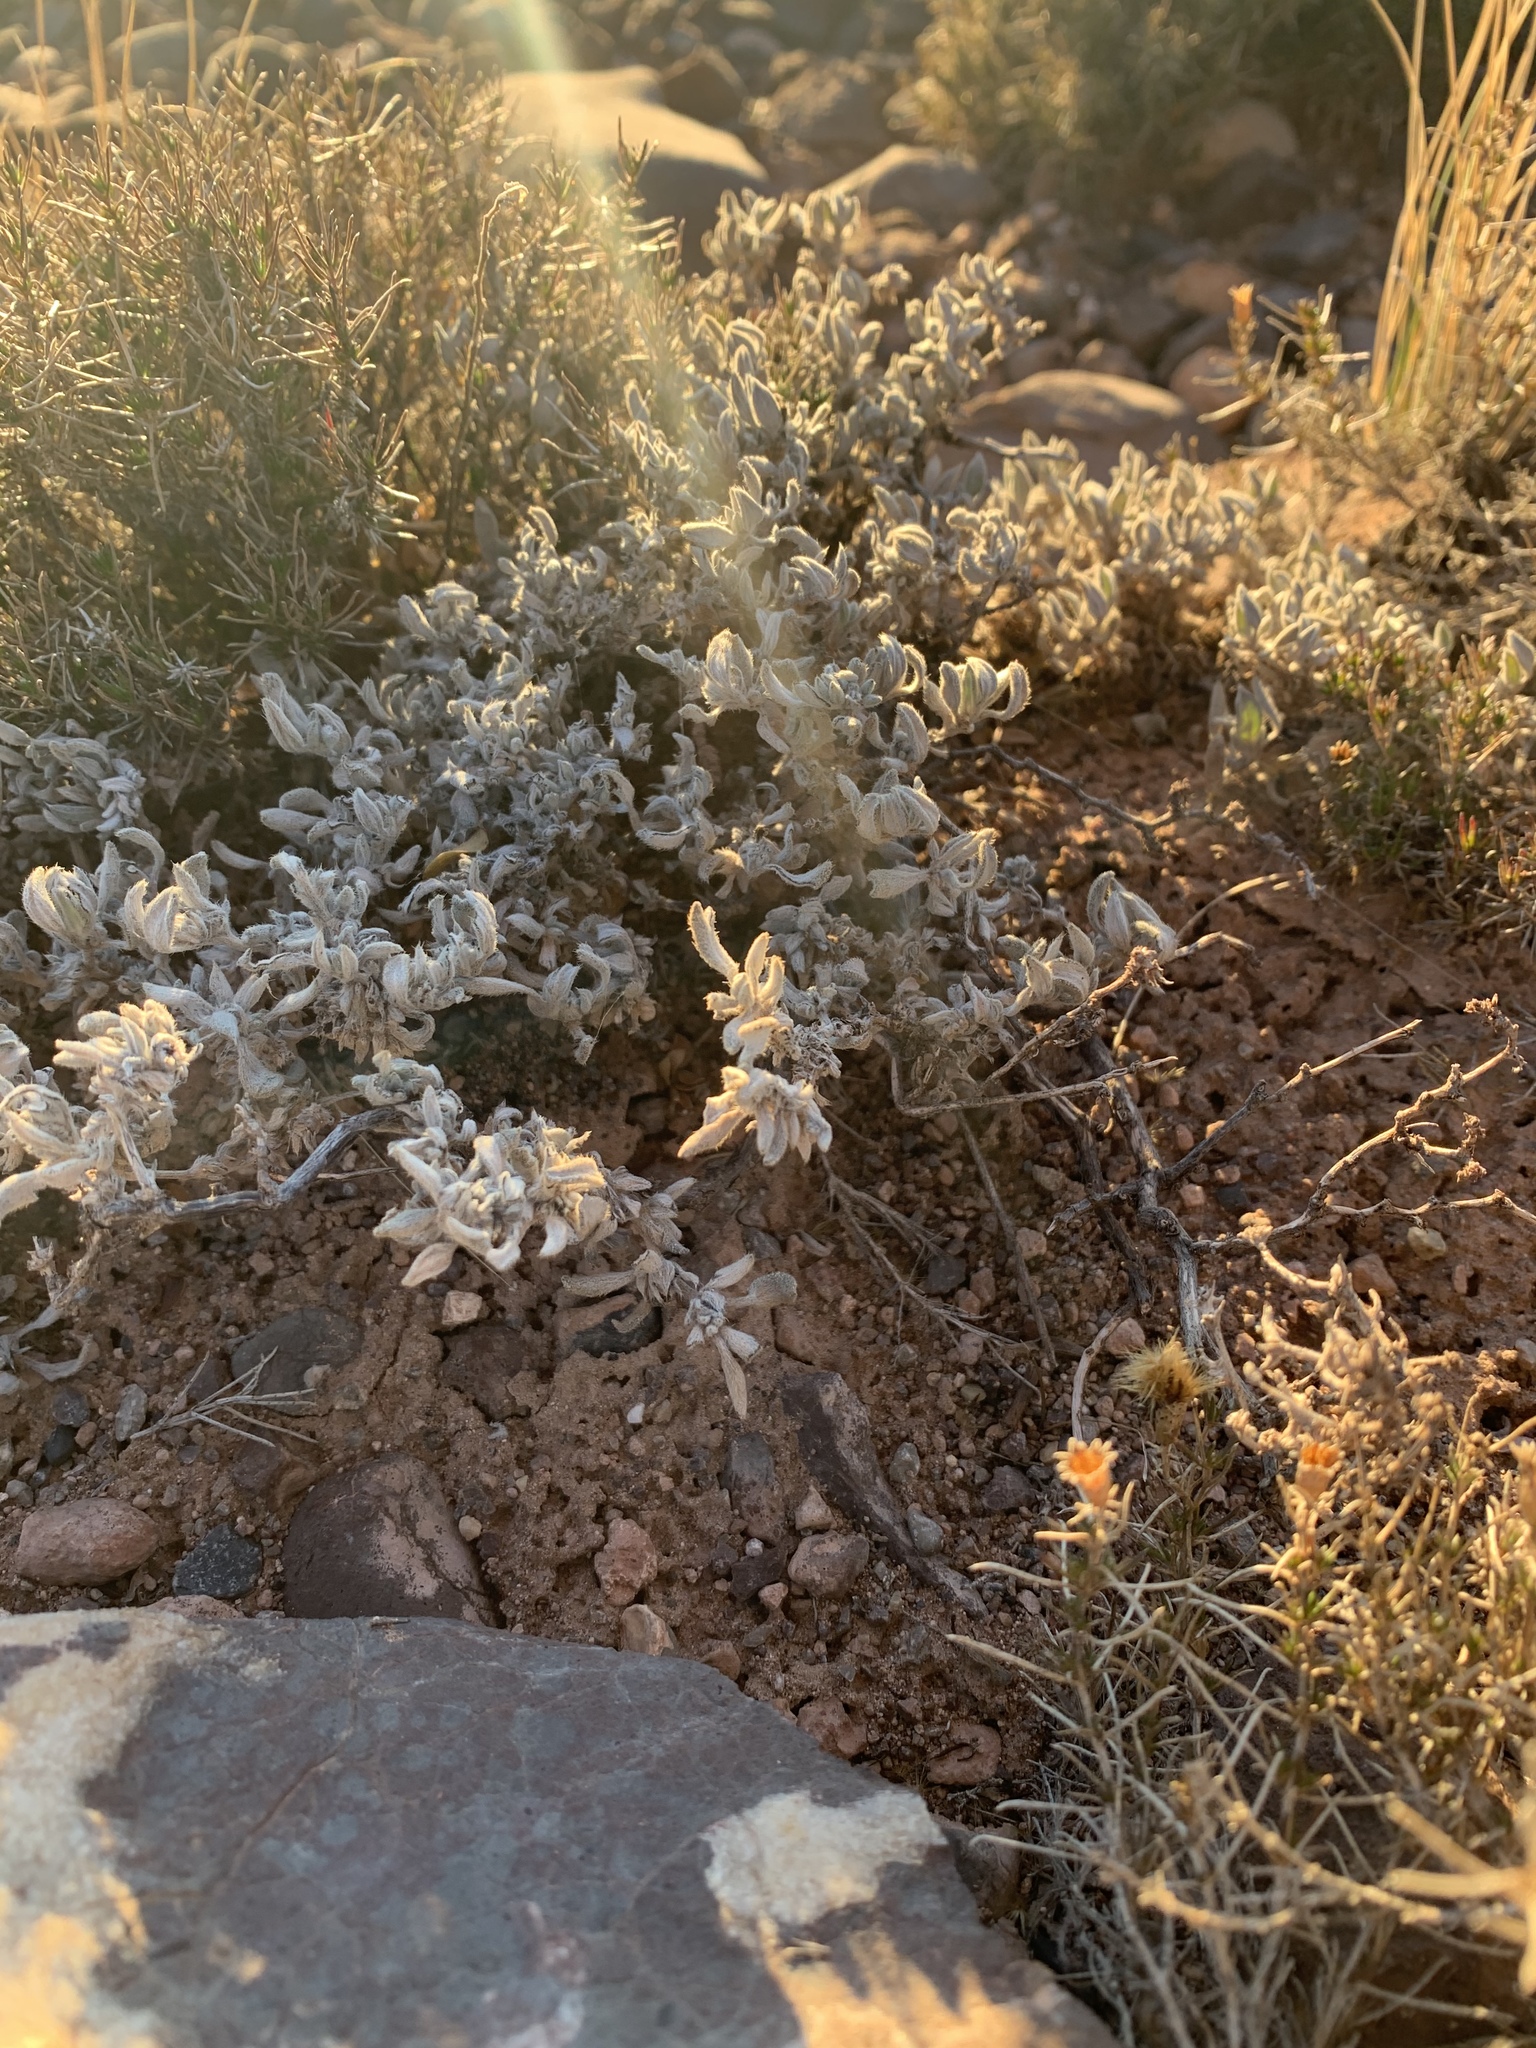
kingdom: Plantae
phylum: Tracheophyta
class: Magnoliopsida
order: Boraginales
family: Ehretiaceae
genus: Tiquilia
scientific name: Tiquilia canescens
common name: Hairy tiquilia
